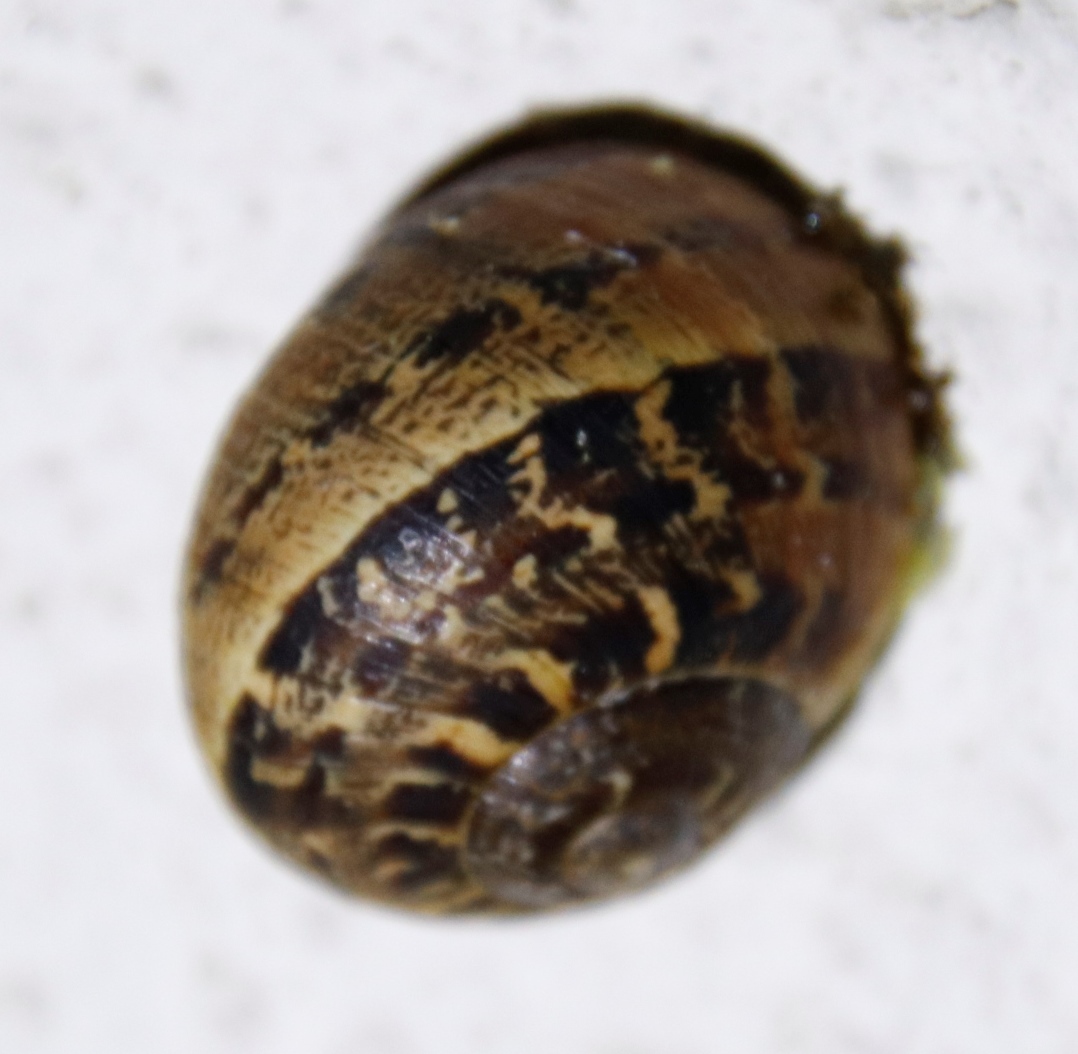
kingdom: Animalia
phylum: Mollusca
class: Gastropoda
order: Stylommatophora
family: Helicidae
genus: Cornu
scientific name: Cornu aspersum
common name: Brown garden snail
